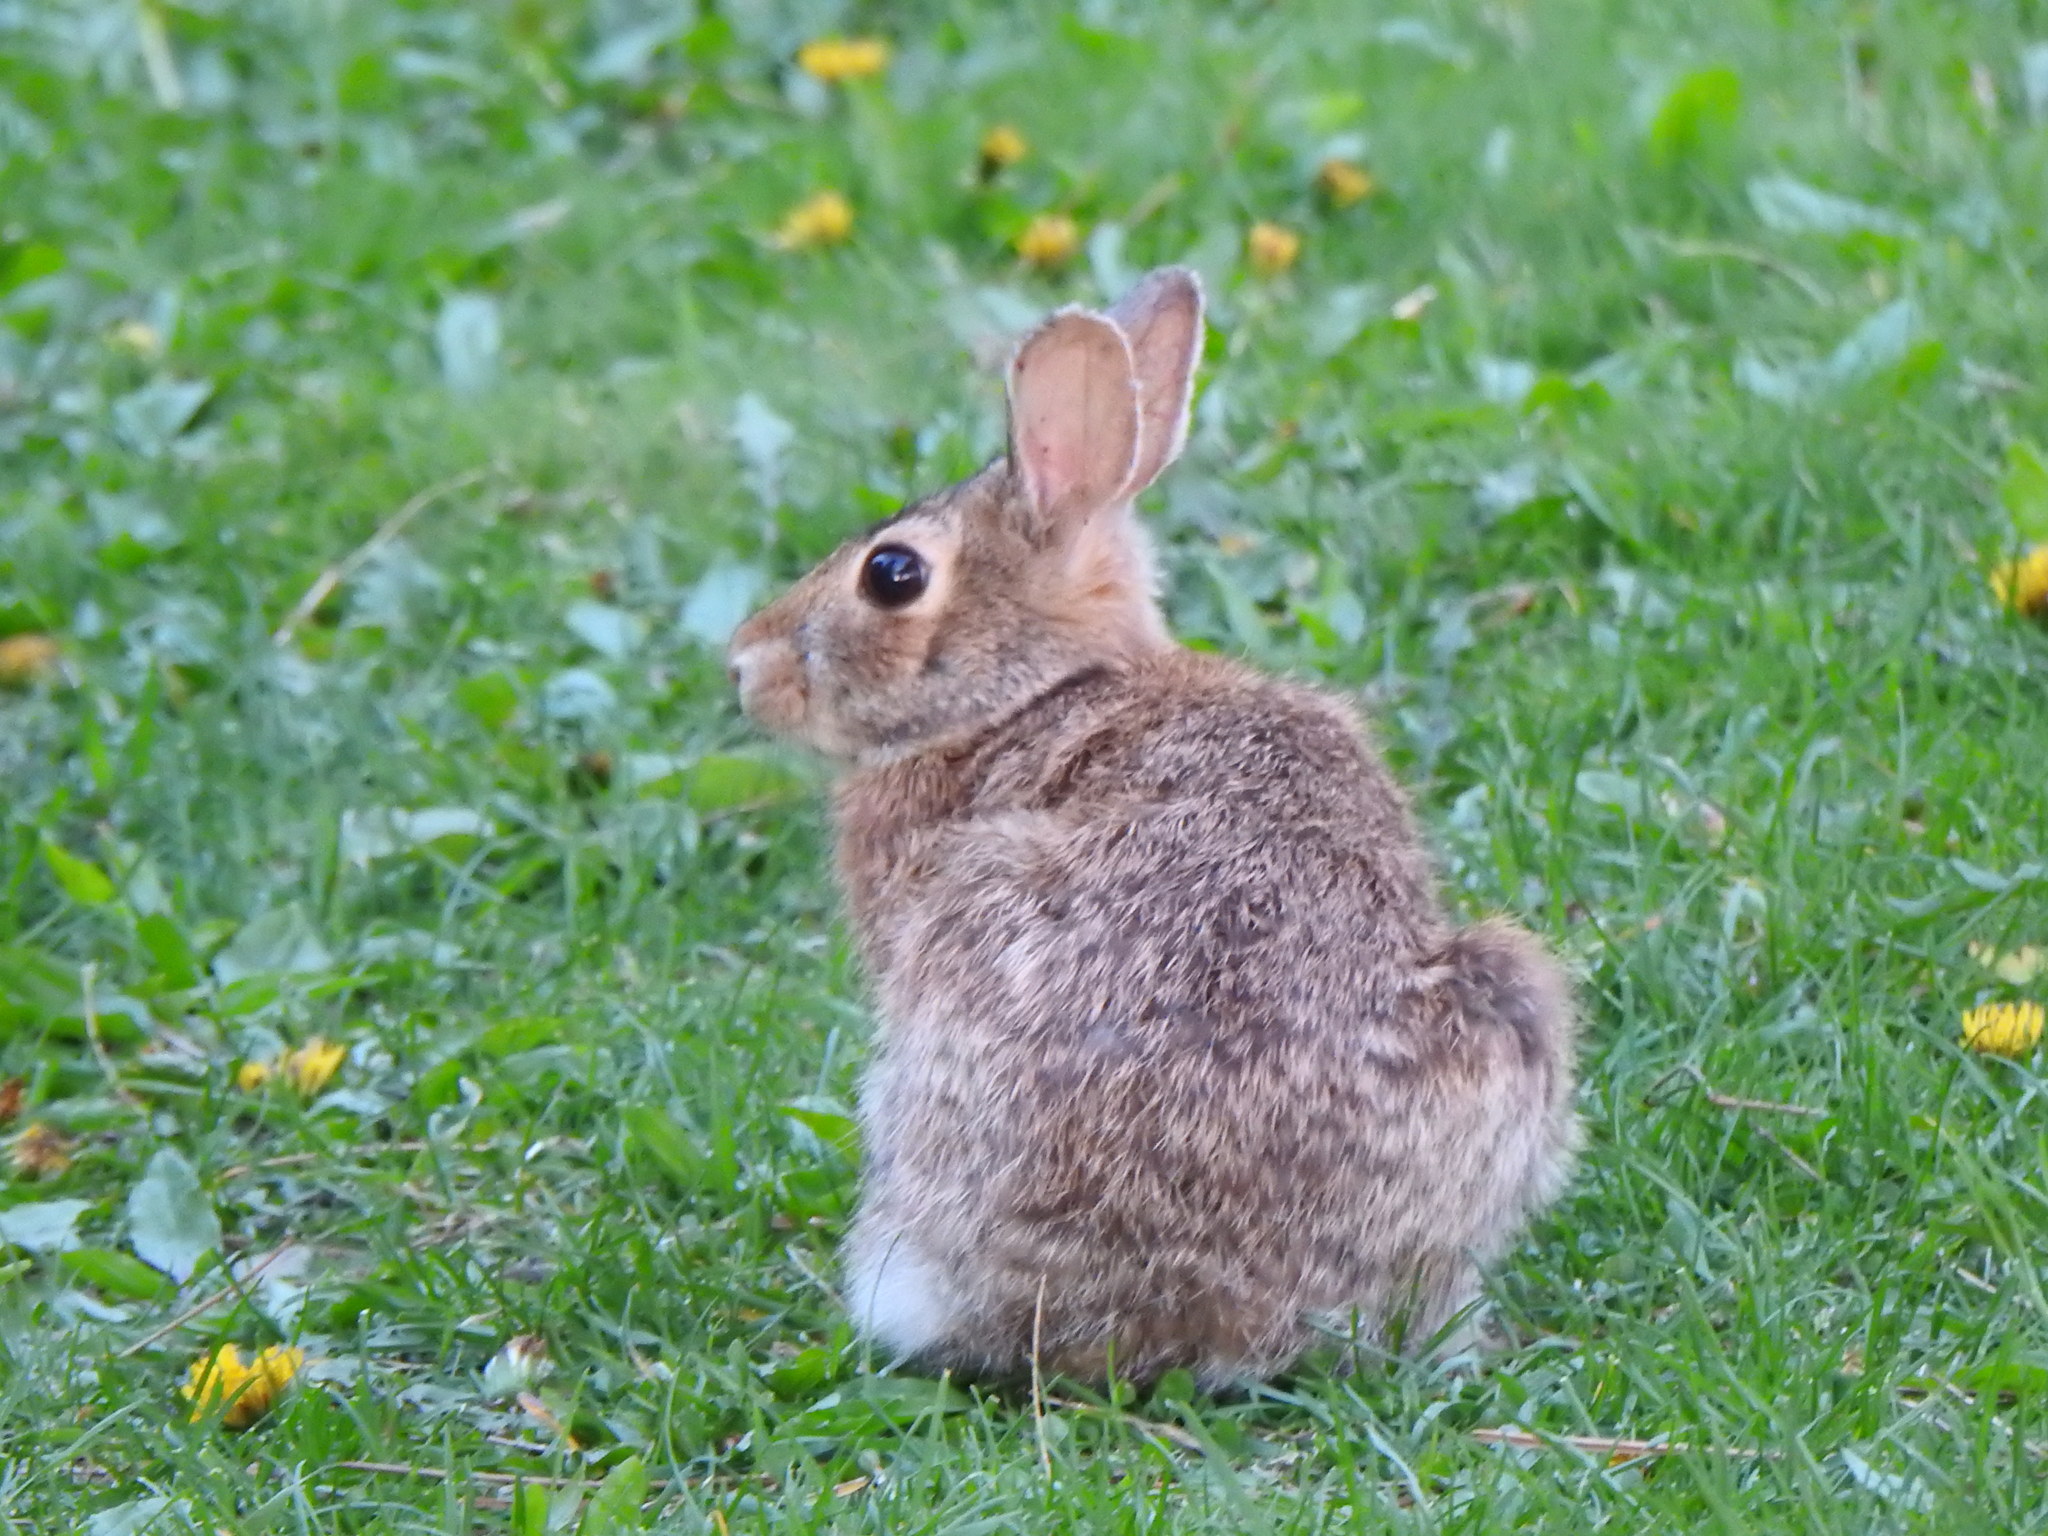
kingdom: Animalia
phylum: Chordata
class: Mammalia
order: Lagomorpha
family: Leporidae
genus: Sylvilagus
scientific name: Sylvilagus floridanus
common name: Eastern cottontail
